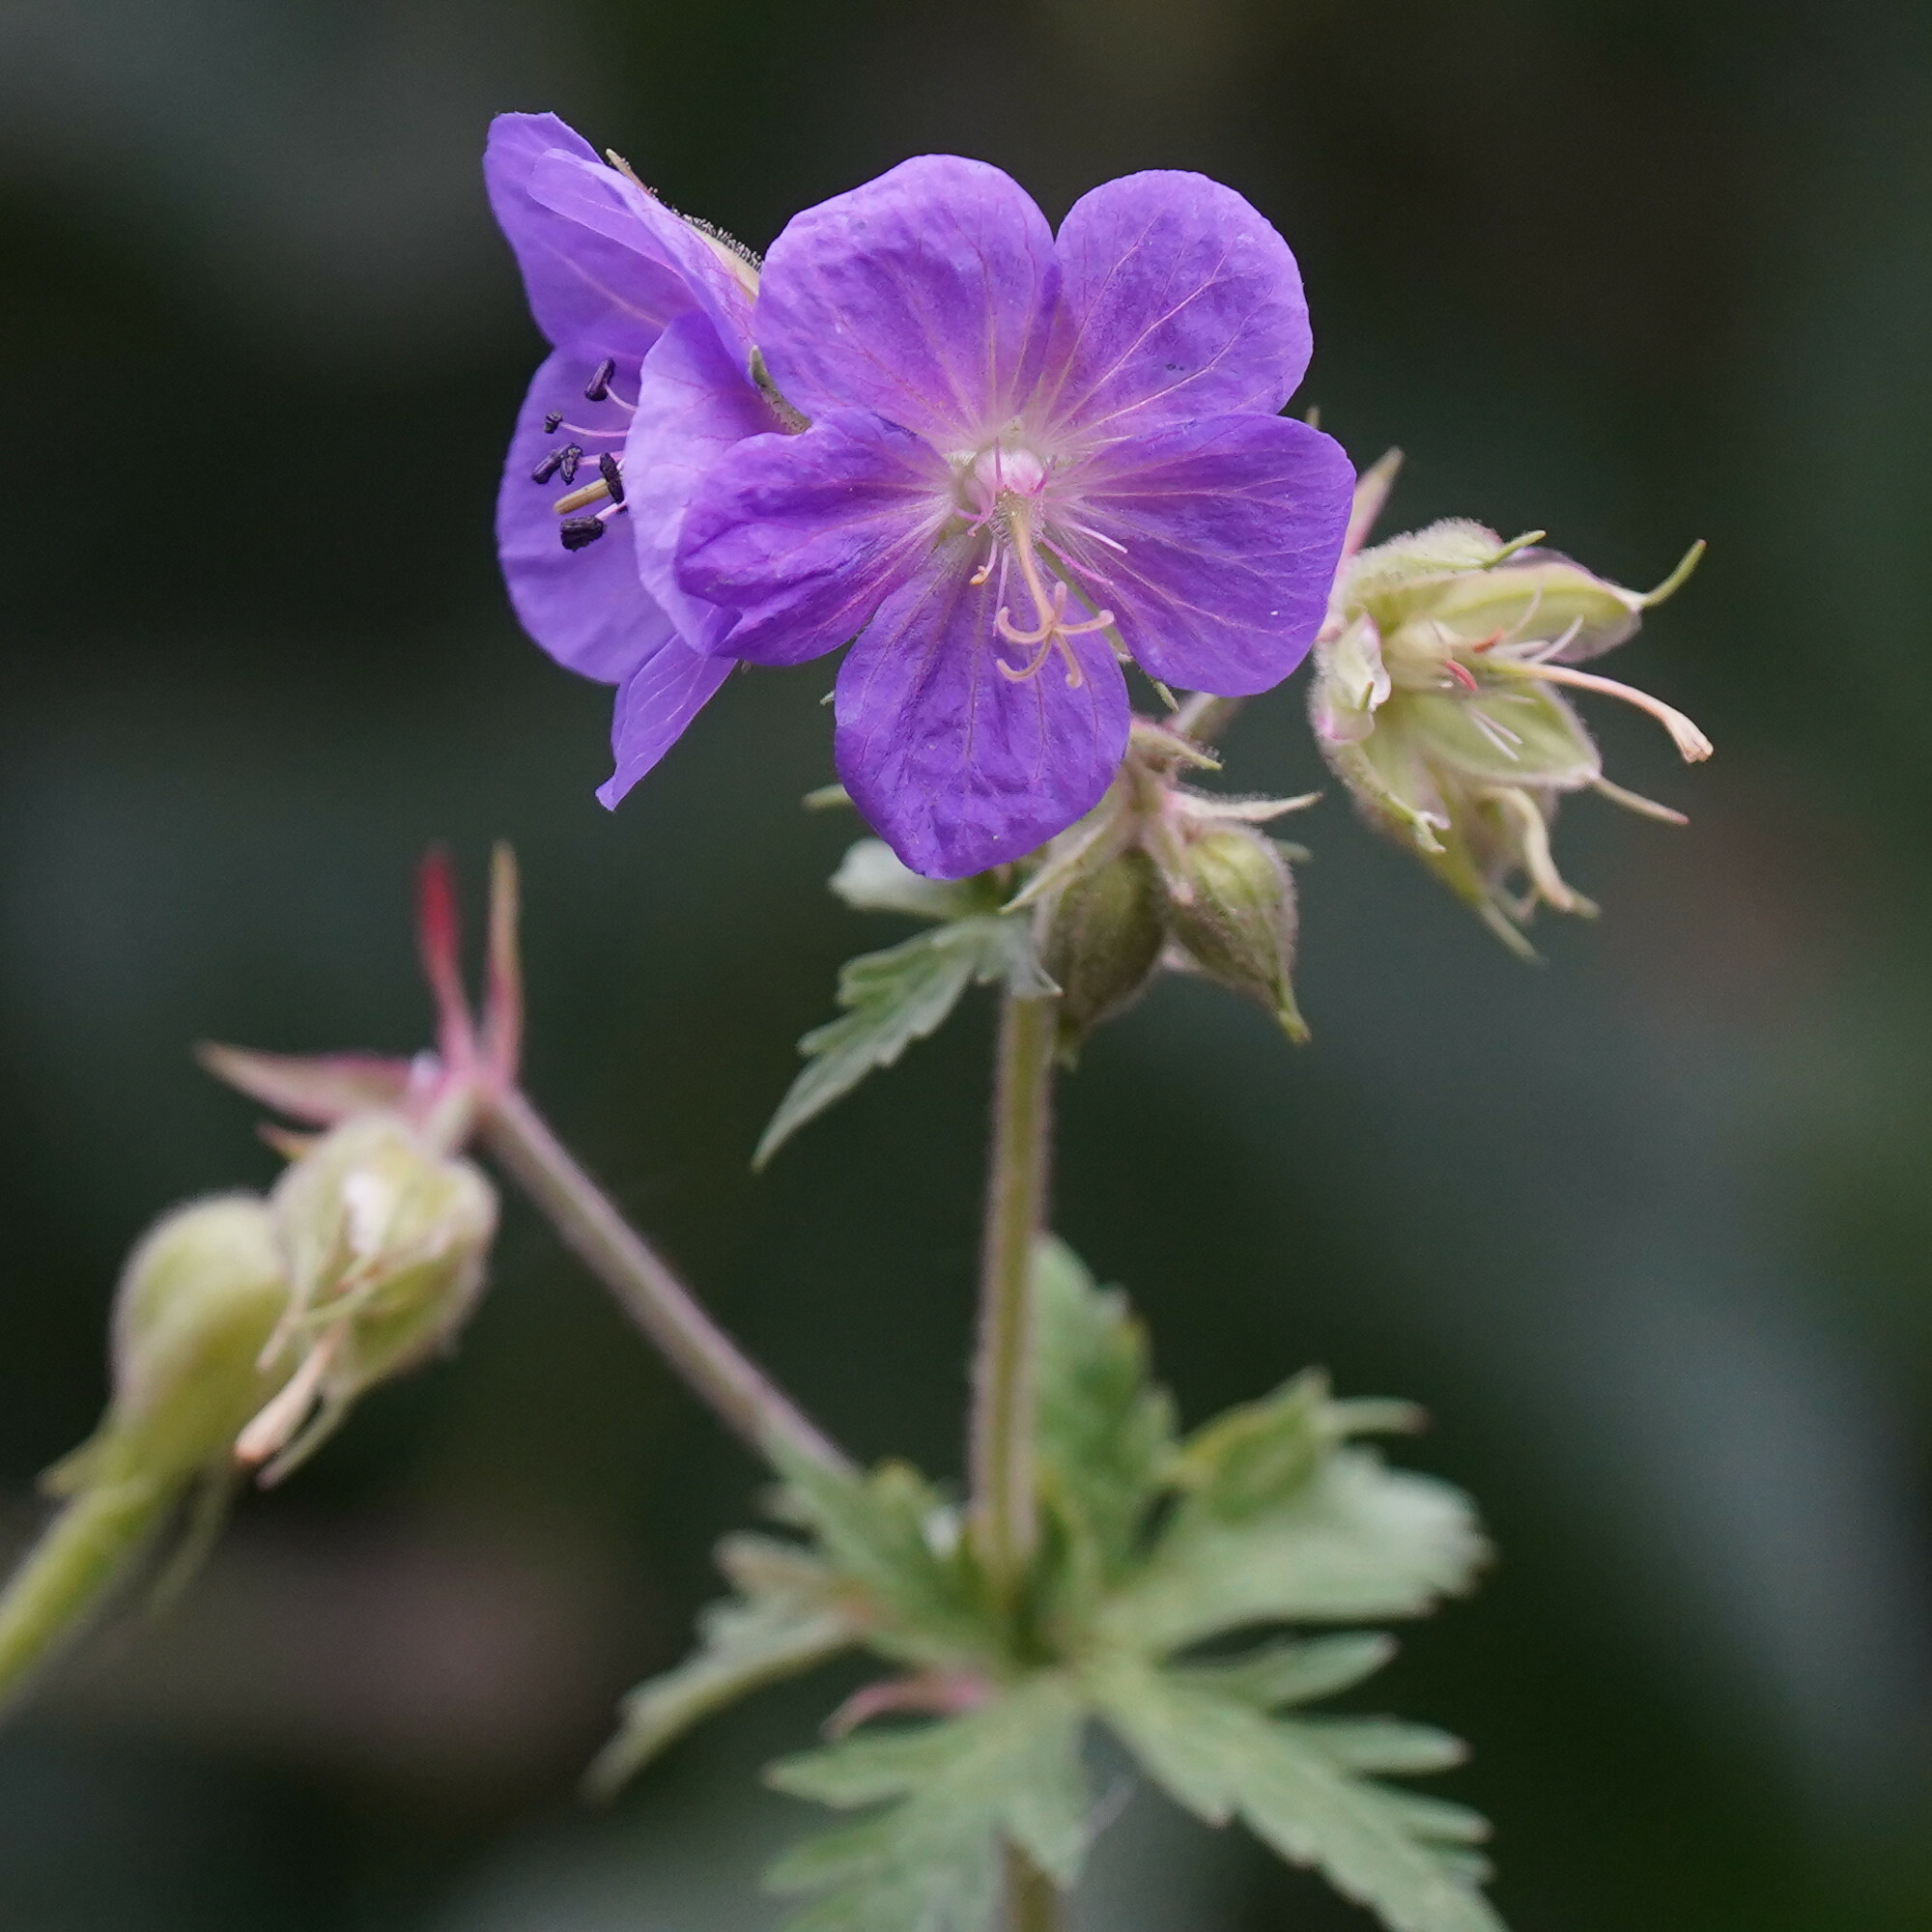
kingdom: Plantae
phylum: Tracheophyta
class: Magnoliopsida
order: Geraniales
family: Geraniaceae
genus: Geranium
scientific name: Geranium pratense
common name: Meadow crane's-bill
